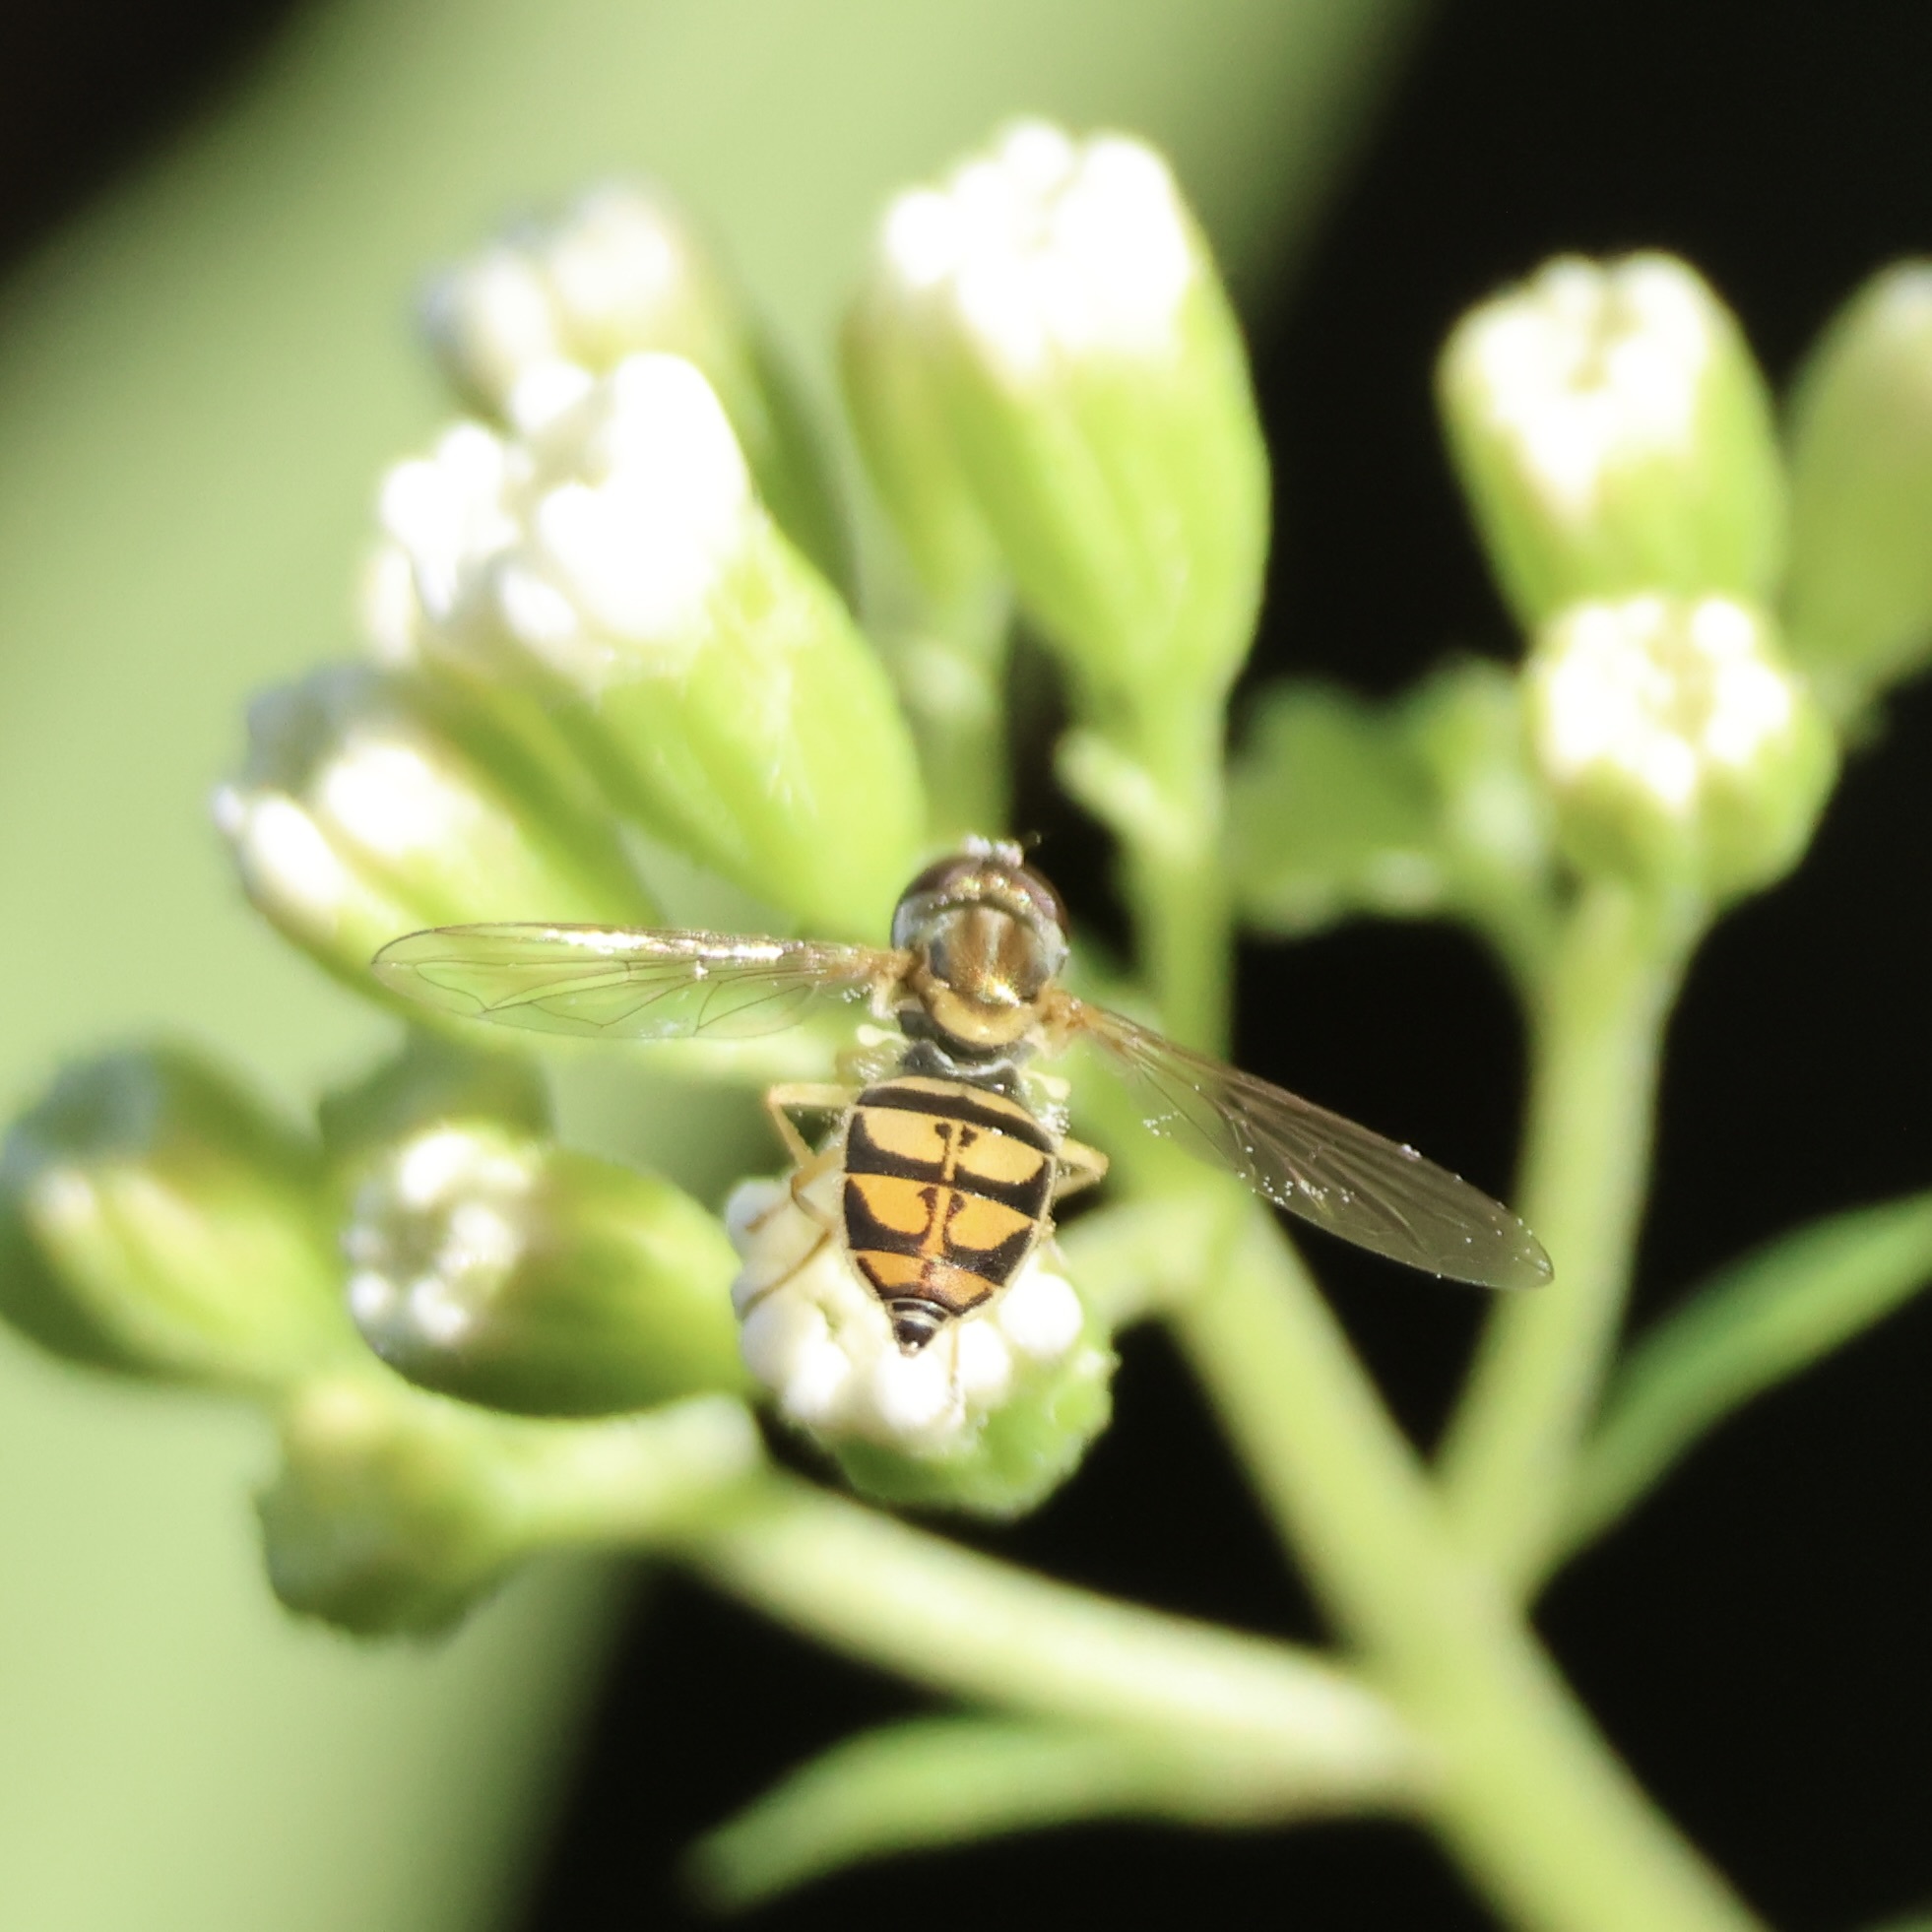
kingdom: Animalia
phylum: Arthropoda
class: Insecta
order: Diptera
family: Syrphidae
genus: Toxomerus
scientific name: Toxomerus marginatus
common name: Syrphid fly
